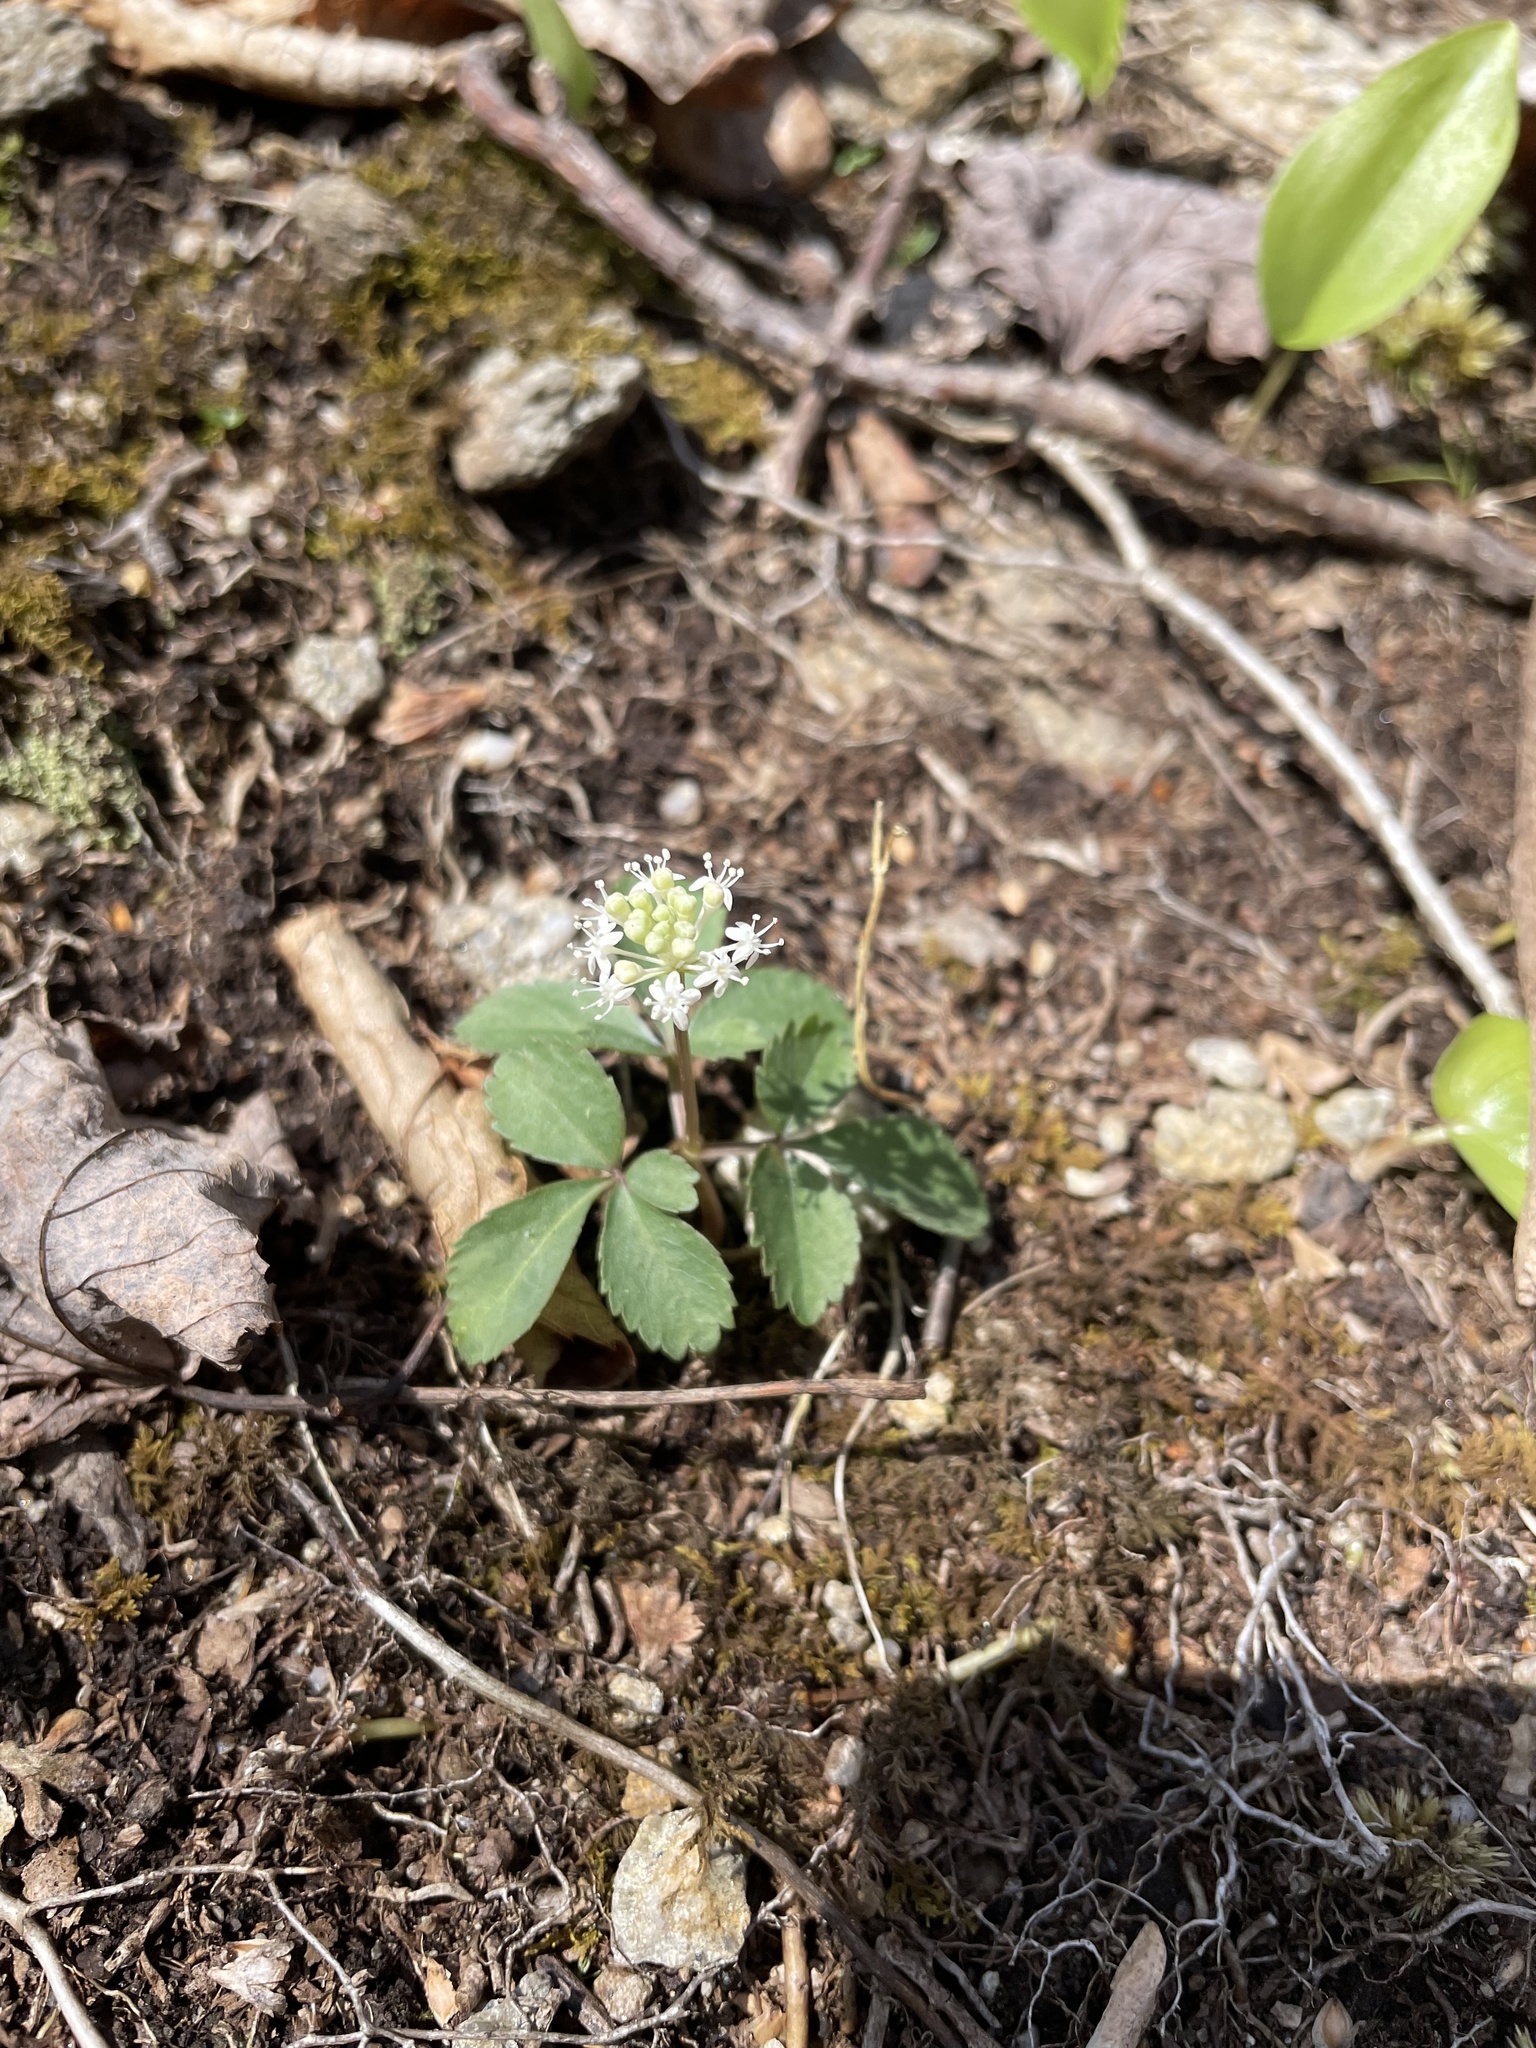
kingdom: Plantae
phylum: Tracheophyta
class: Magnoliopsida
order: Apiales
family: Araliaceae
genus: Panax
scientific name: Panax trifolius
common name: Dwarf ginseng
